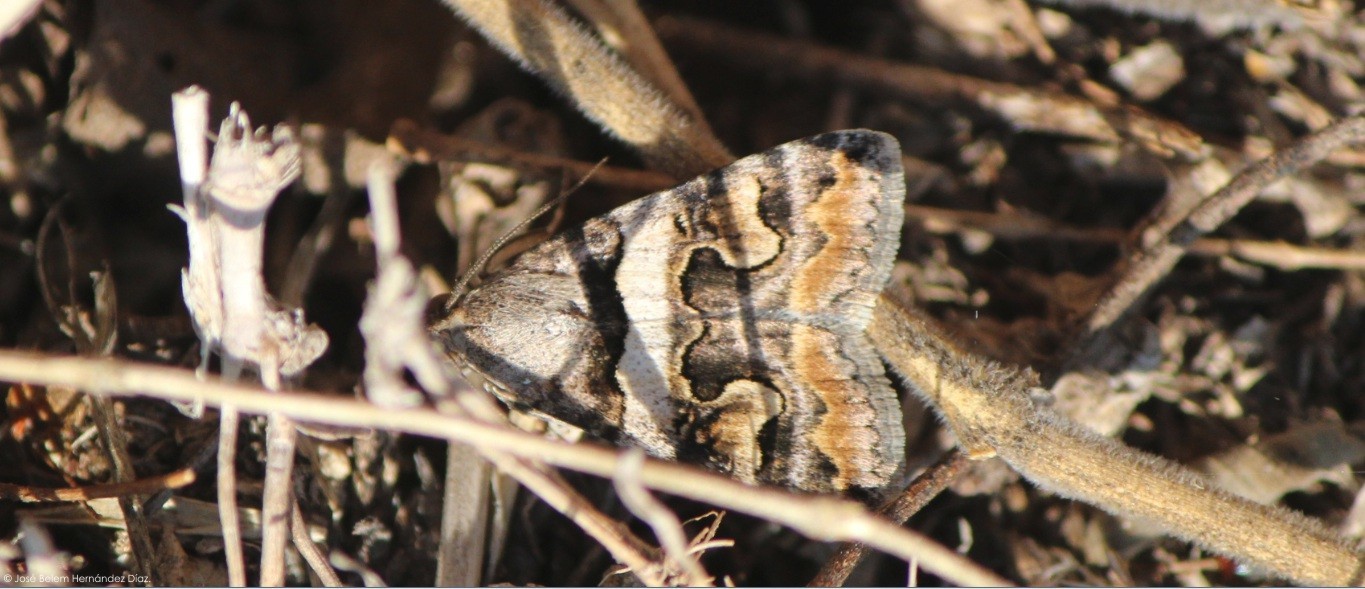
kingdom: Animalia
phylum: Arthropoda
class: Insecta
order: Lepidoptera
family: Erebidae
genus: Bulia
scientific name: Bulia deducta
